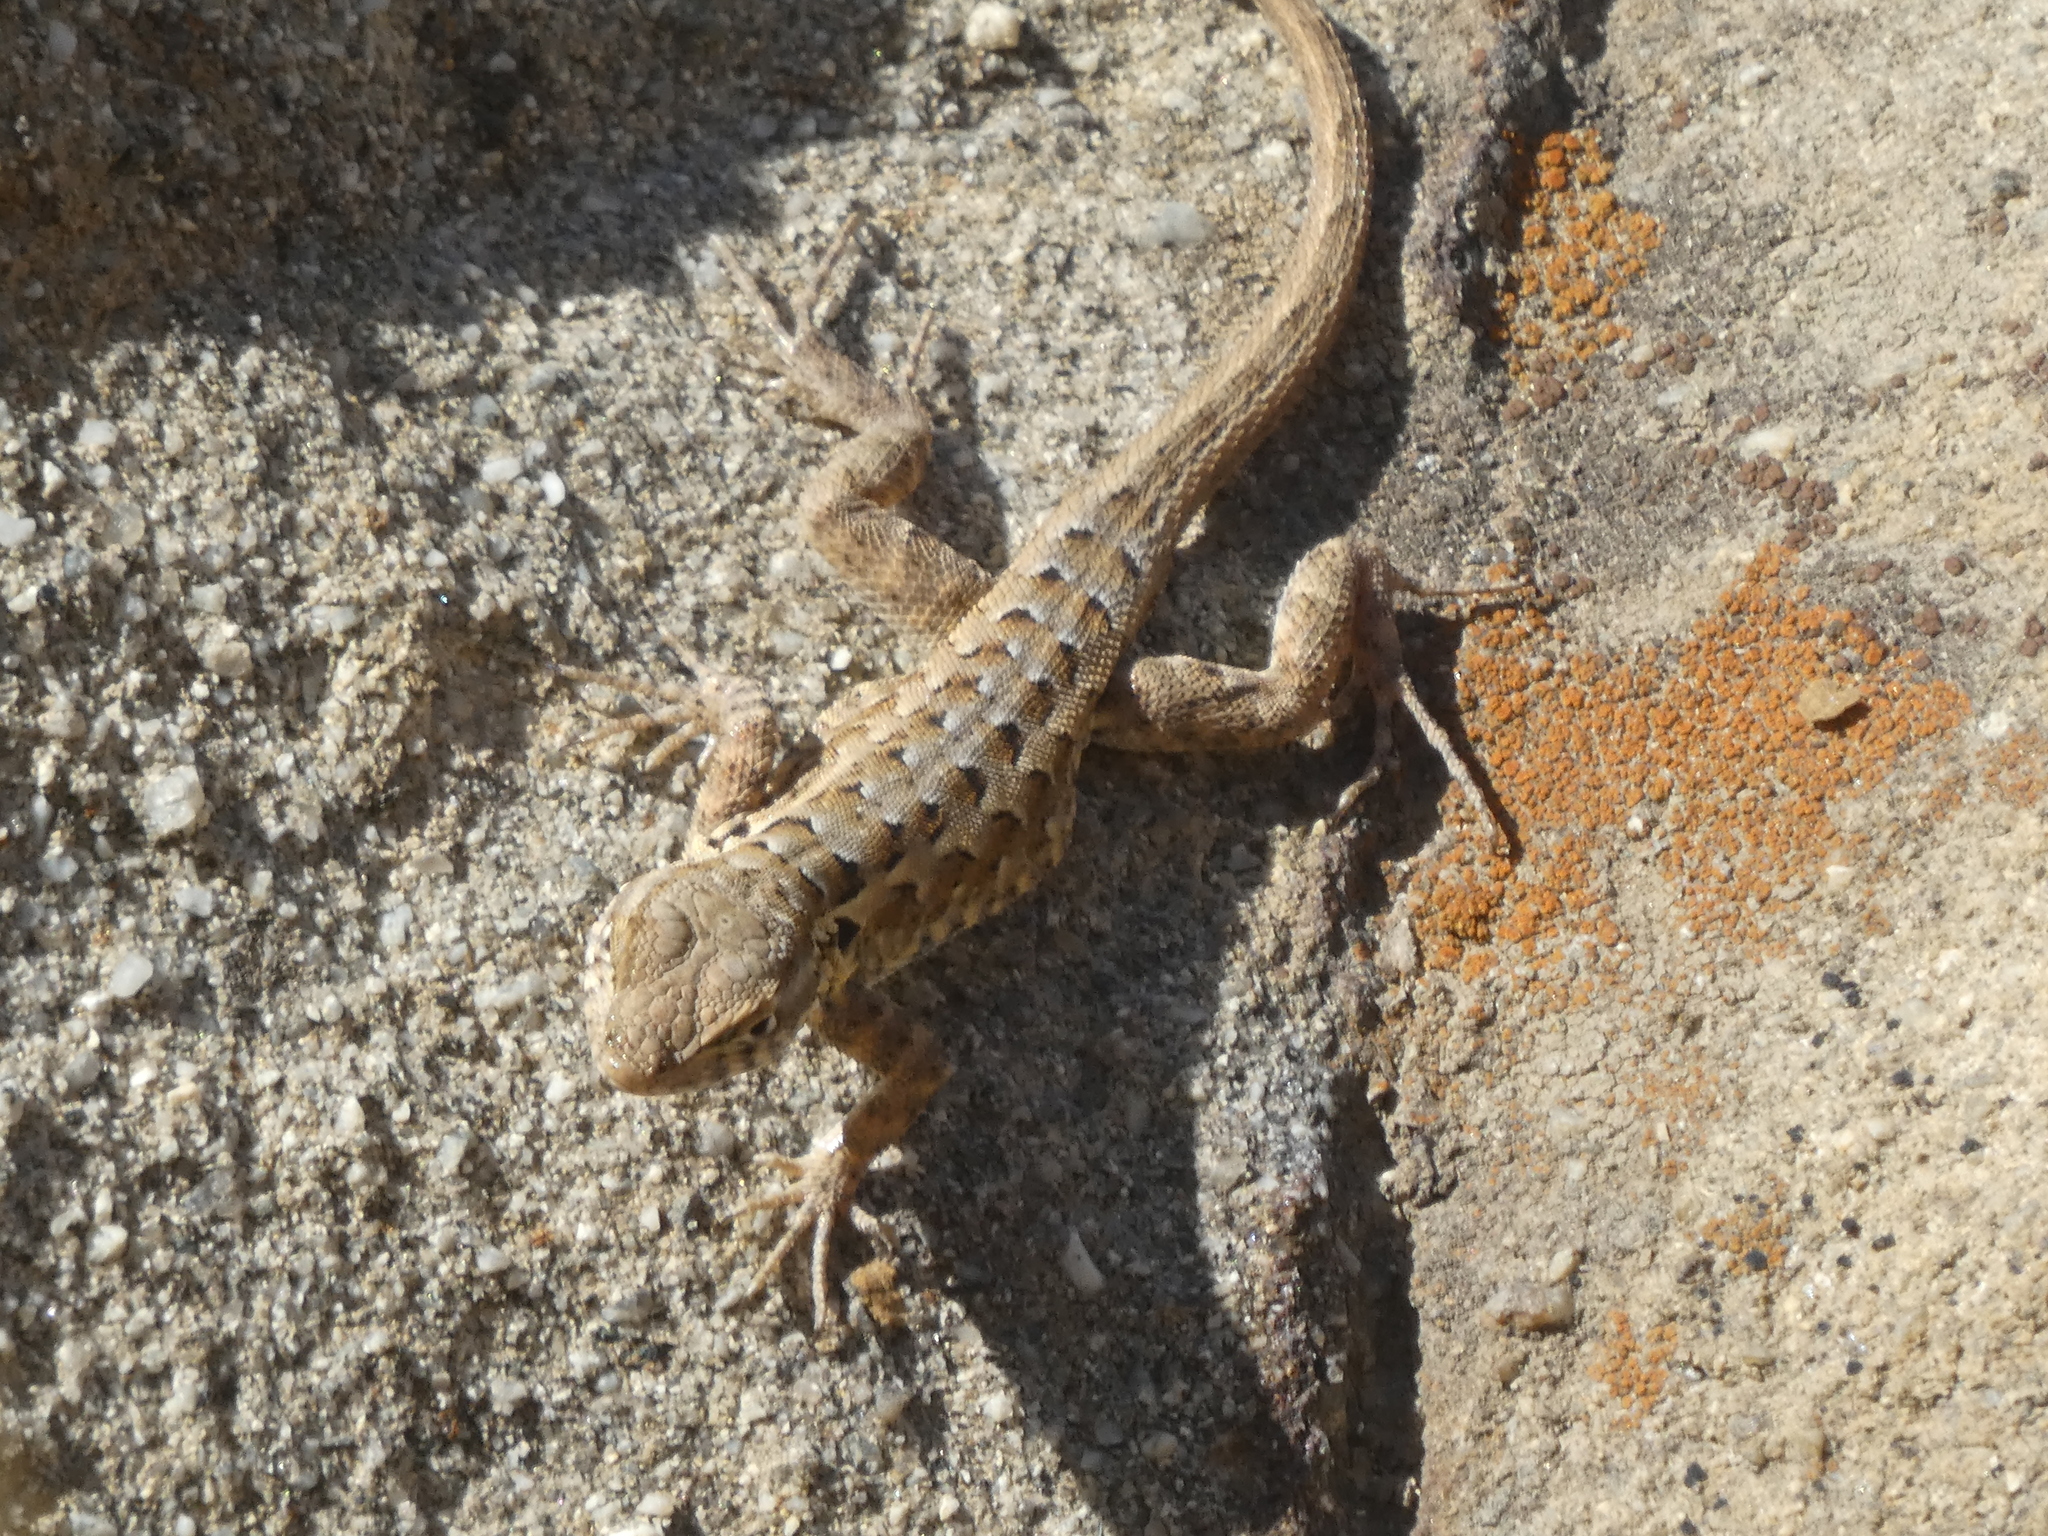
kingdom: Animalia
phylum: Chordata
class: Squamata
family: Phrynosomatidae
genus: Uta
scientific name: Uta stansburiana
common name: Side-blotched lizard
